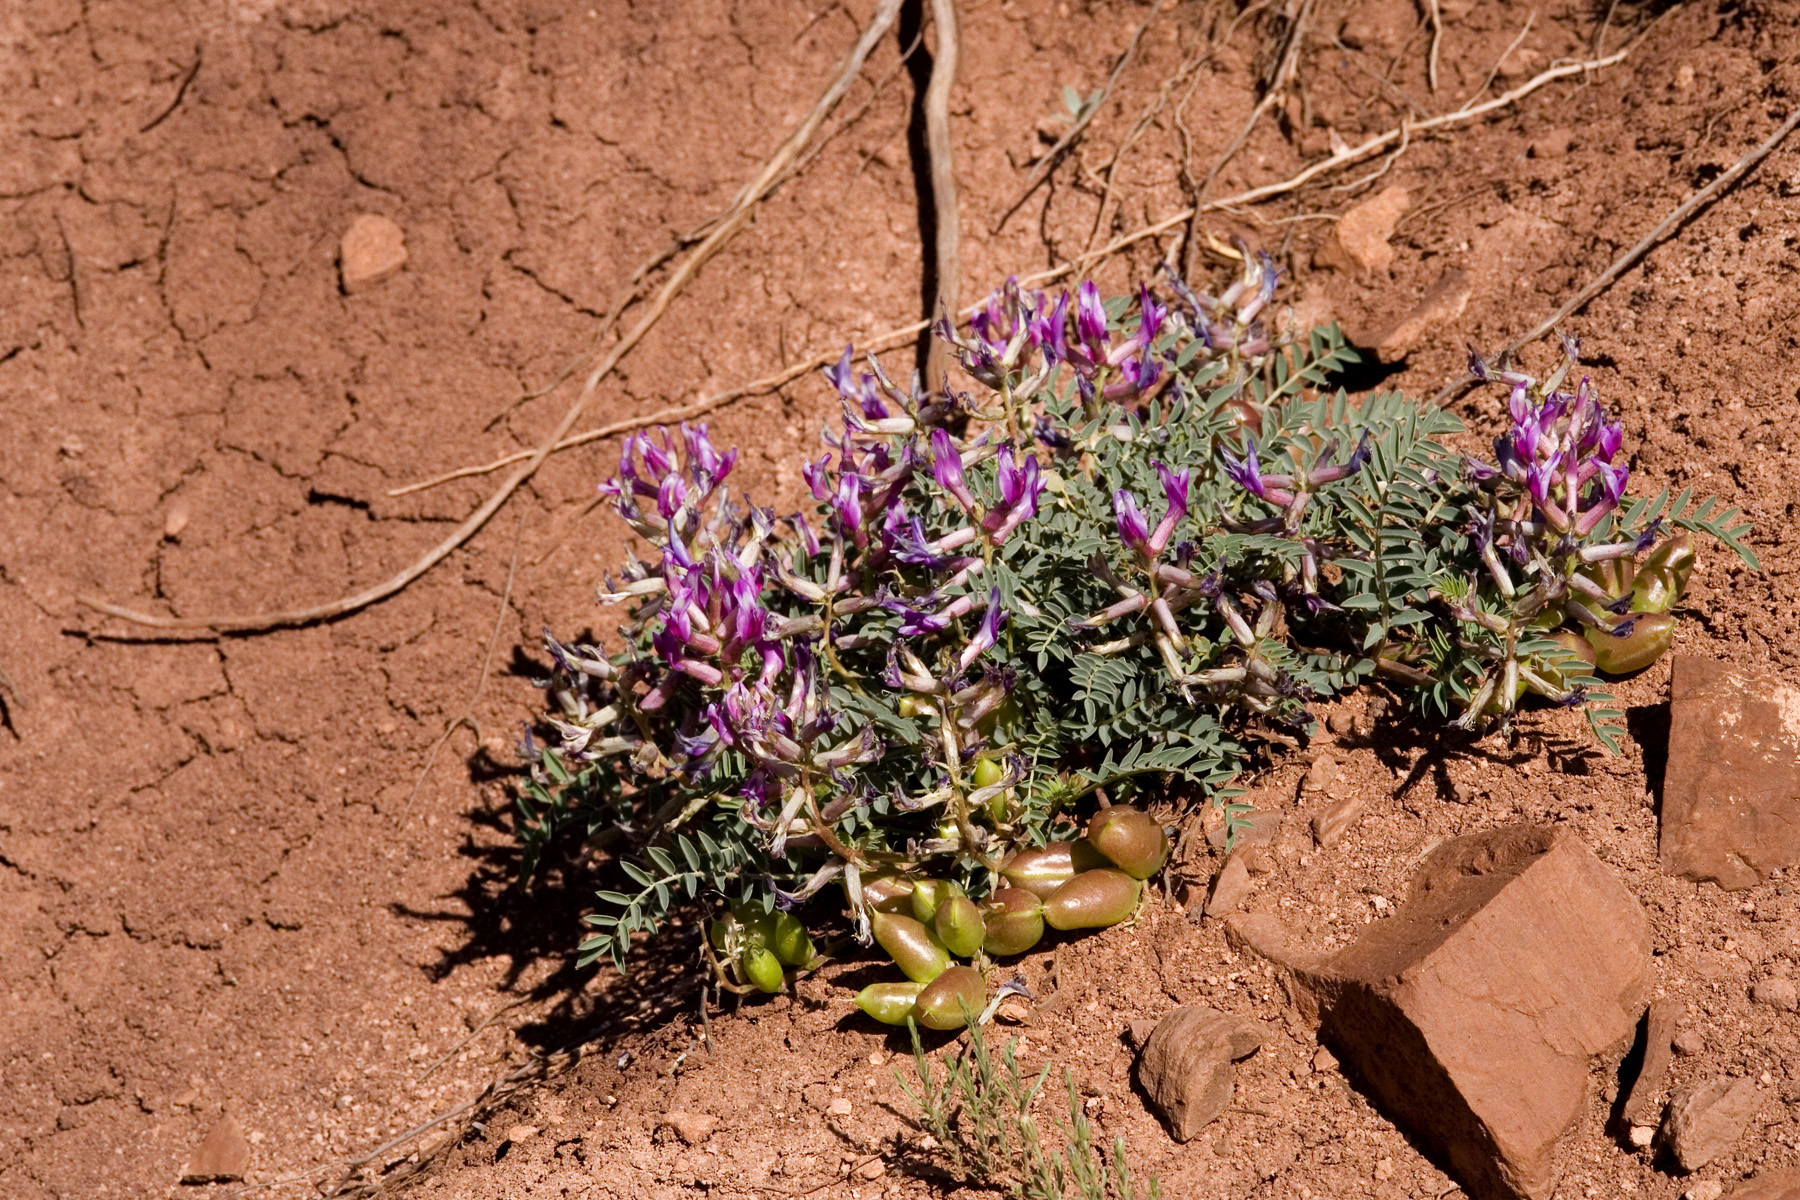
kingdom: Plantae
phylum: Tracheophyta
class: Magnoliopsida
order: Fabales
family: Fabaceae
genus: Astragalus
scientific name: Astragalus crassicarpus
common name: Ground-plum milk-vetch
